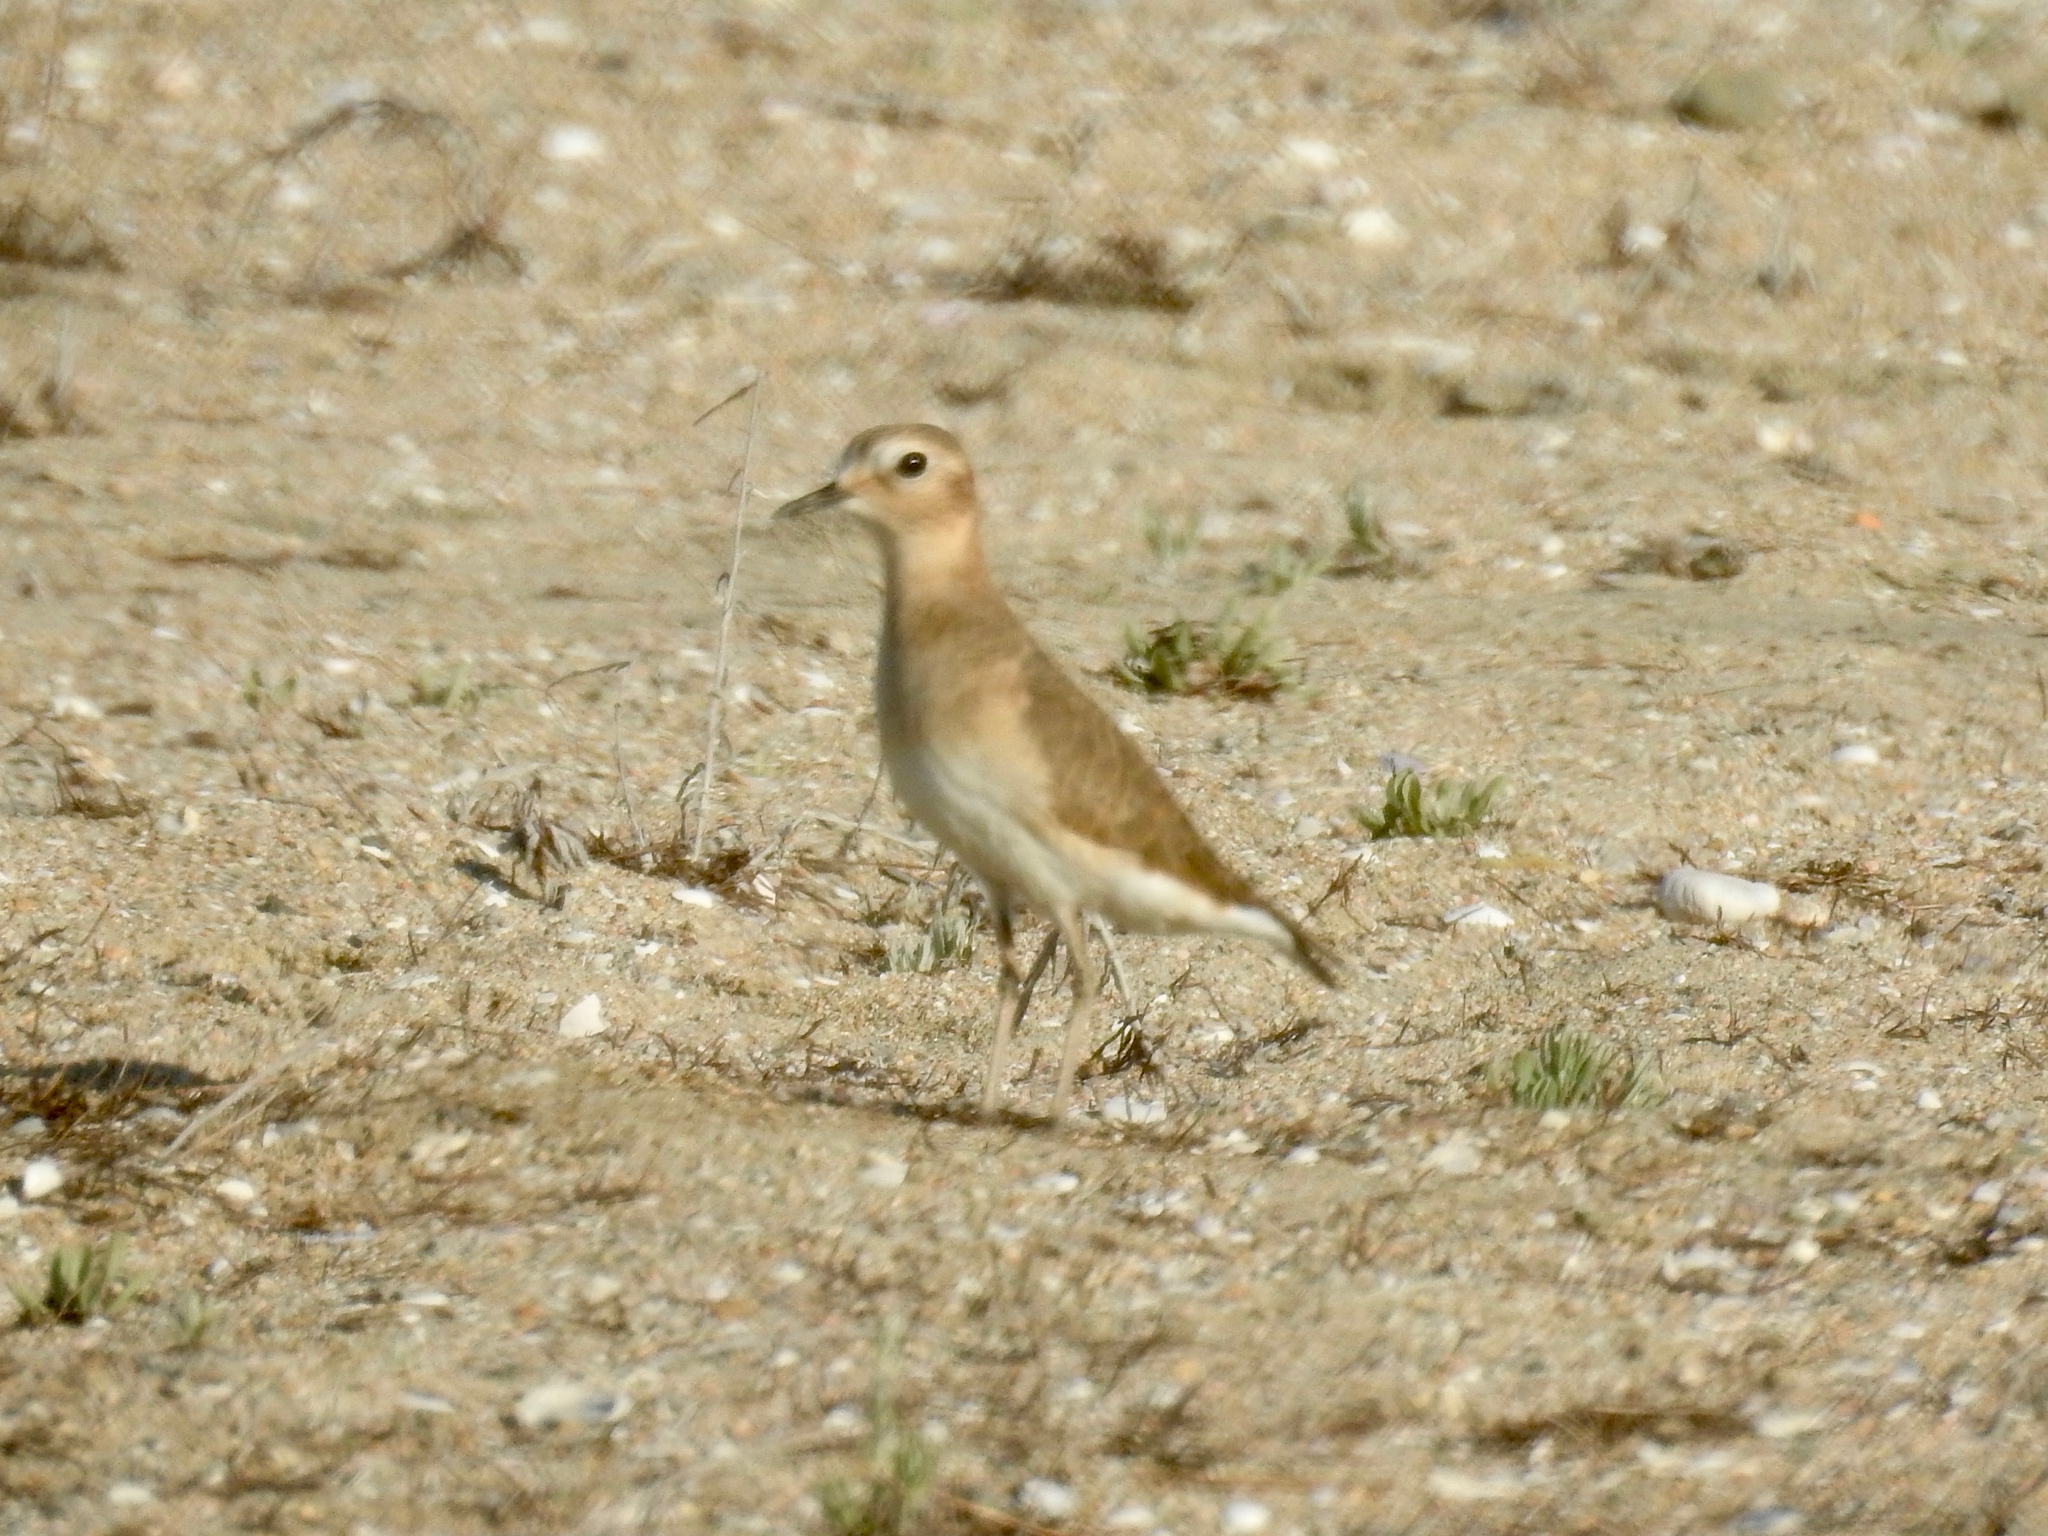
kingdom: Animalia
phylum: Chordata
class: Aves
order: Charadriiformes
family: Charadriidae
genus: Anarhynchus
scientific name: Anarhynchus
